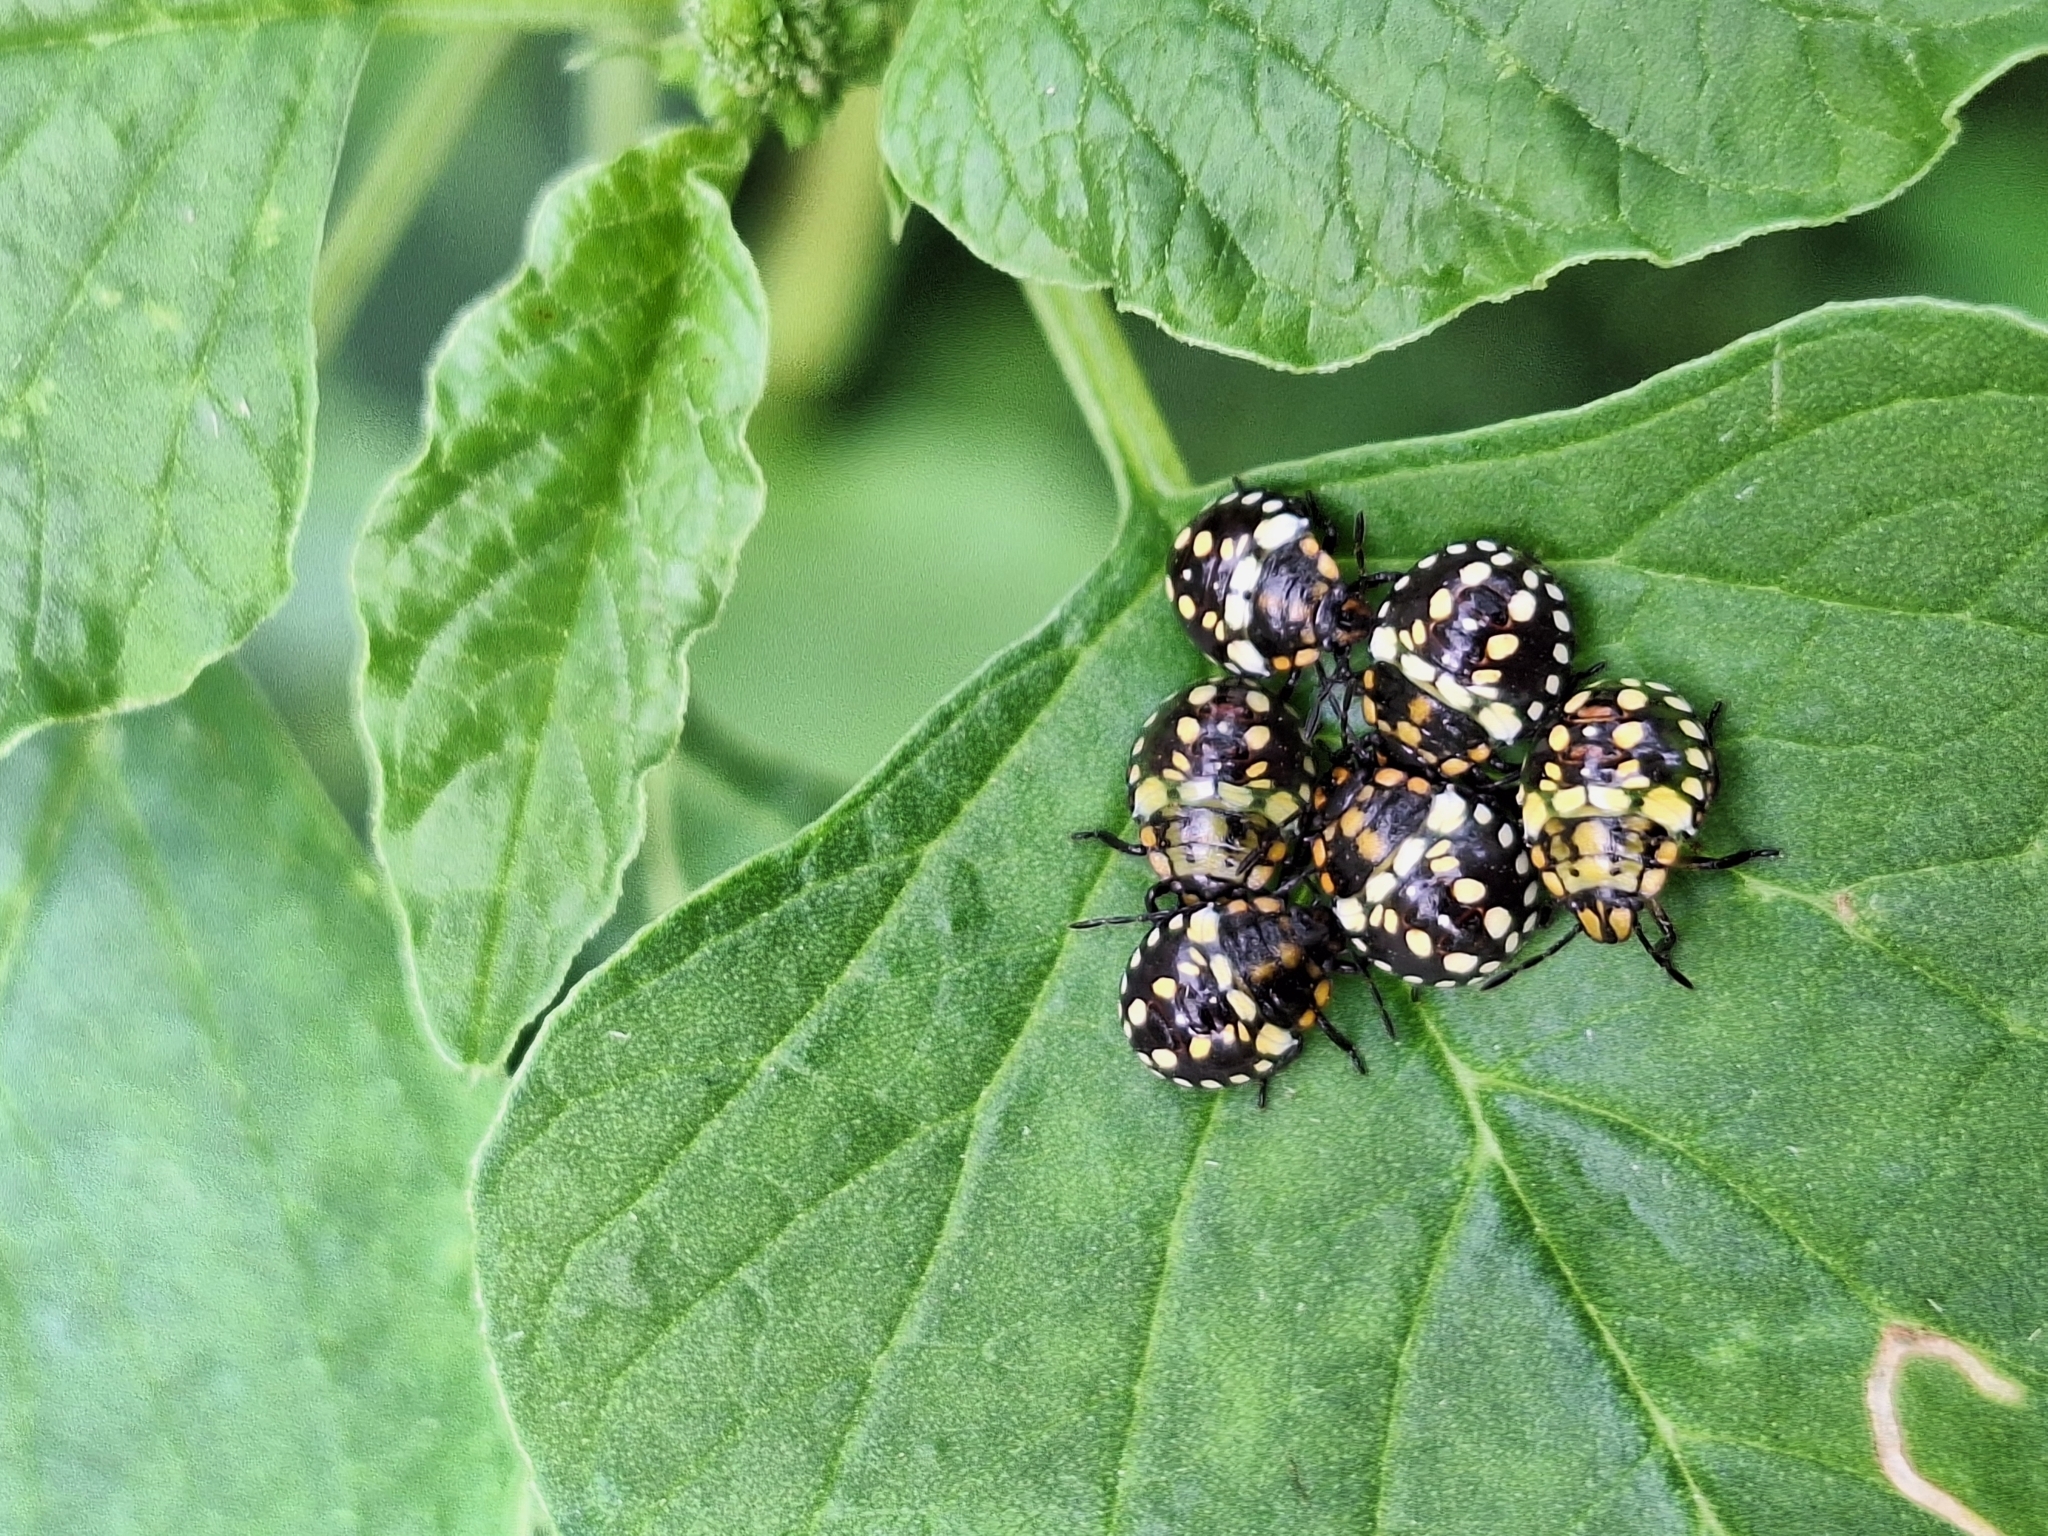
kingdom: Animalia
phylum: Arthropoda
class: Insecta
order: Hemiptera
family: Pentatomidae
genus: Nezara
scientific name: Nezara viridula
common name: Southern green stink bug
